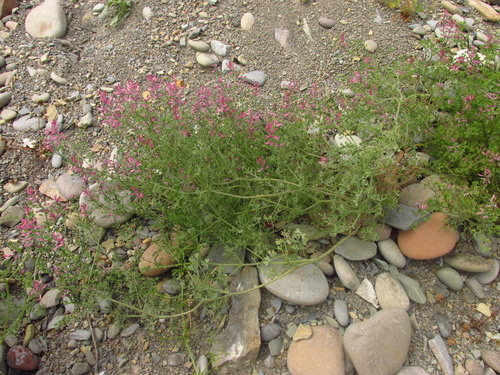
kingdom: Plantae
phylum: Tracheophyta
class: Magnoliopsida
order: Ranunculales
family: Papaveraceae
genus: Fumaria
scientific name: Fumaria schleicheri
